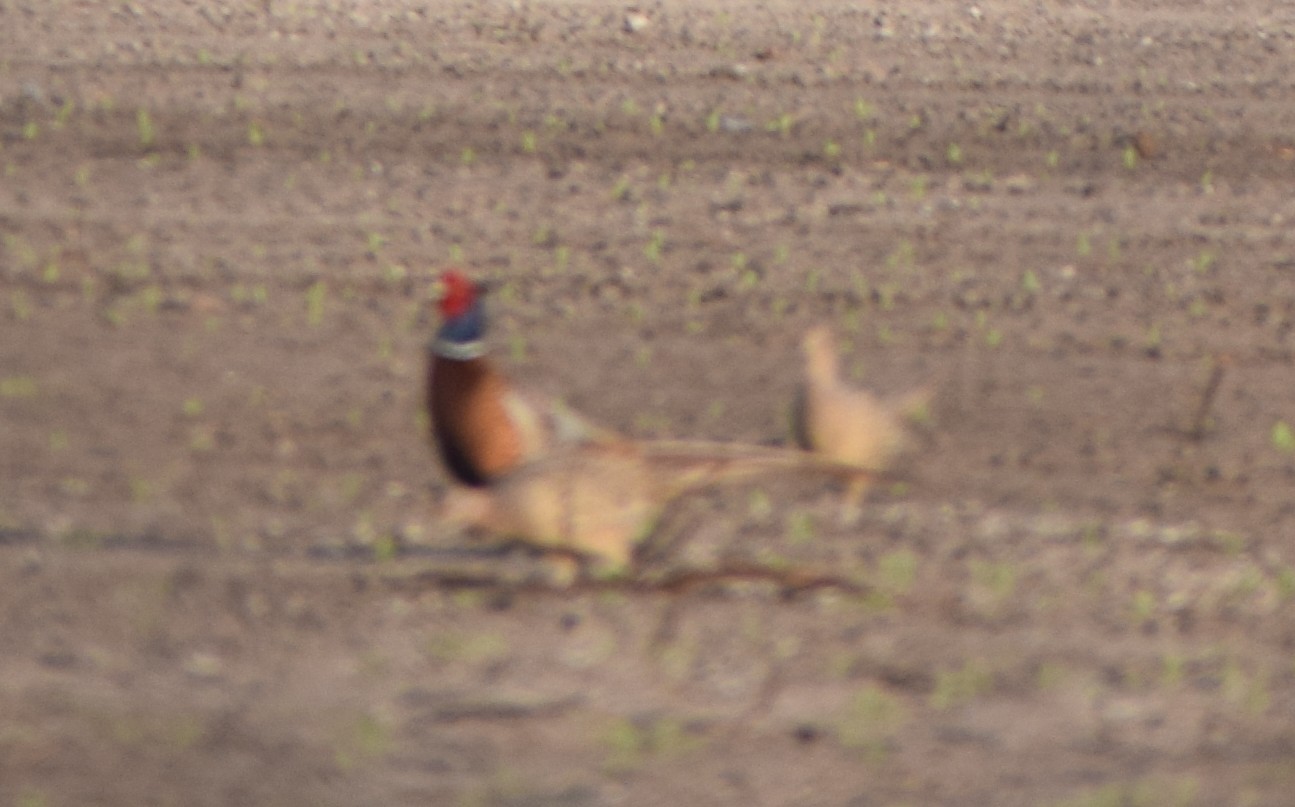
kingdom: Animalia
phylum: Chordata
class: Aves
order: Galliformes
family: Phasianidae
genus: Phasianus
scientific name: Phasianus colchicus
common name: Common pheasant
